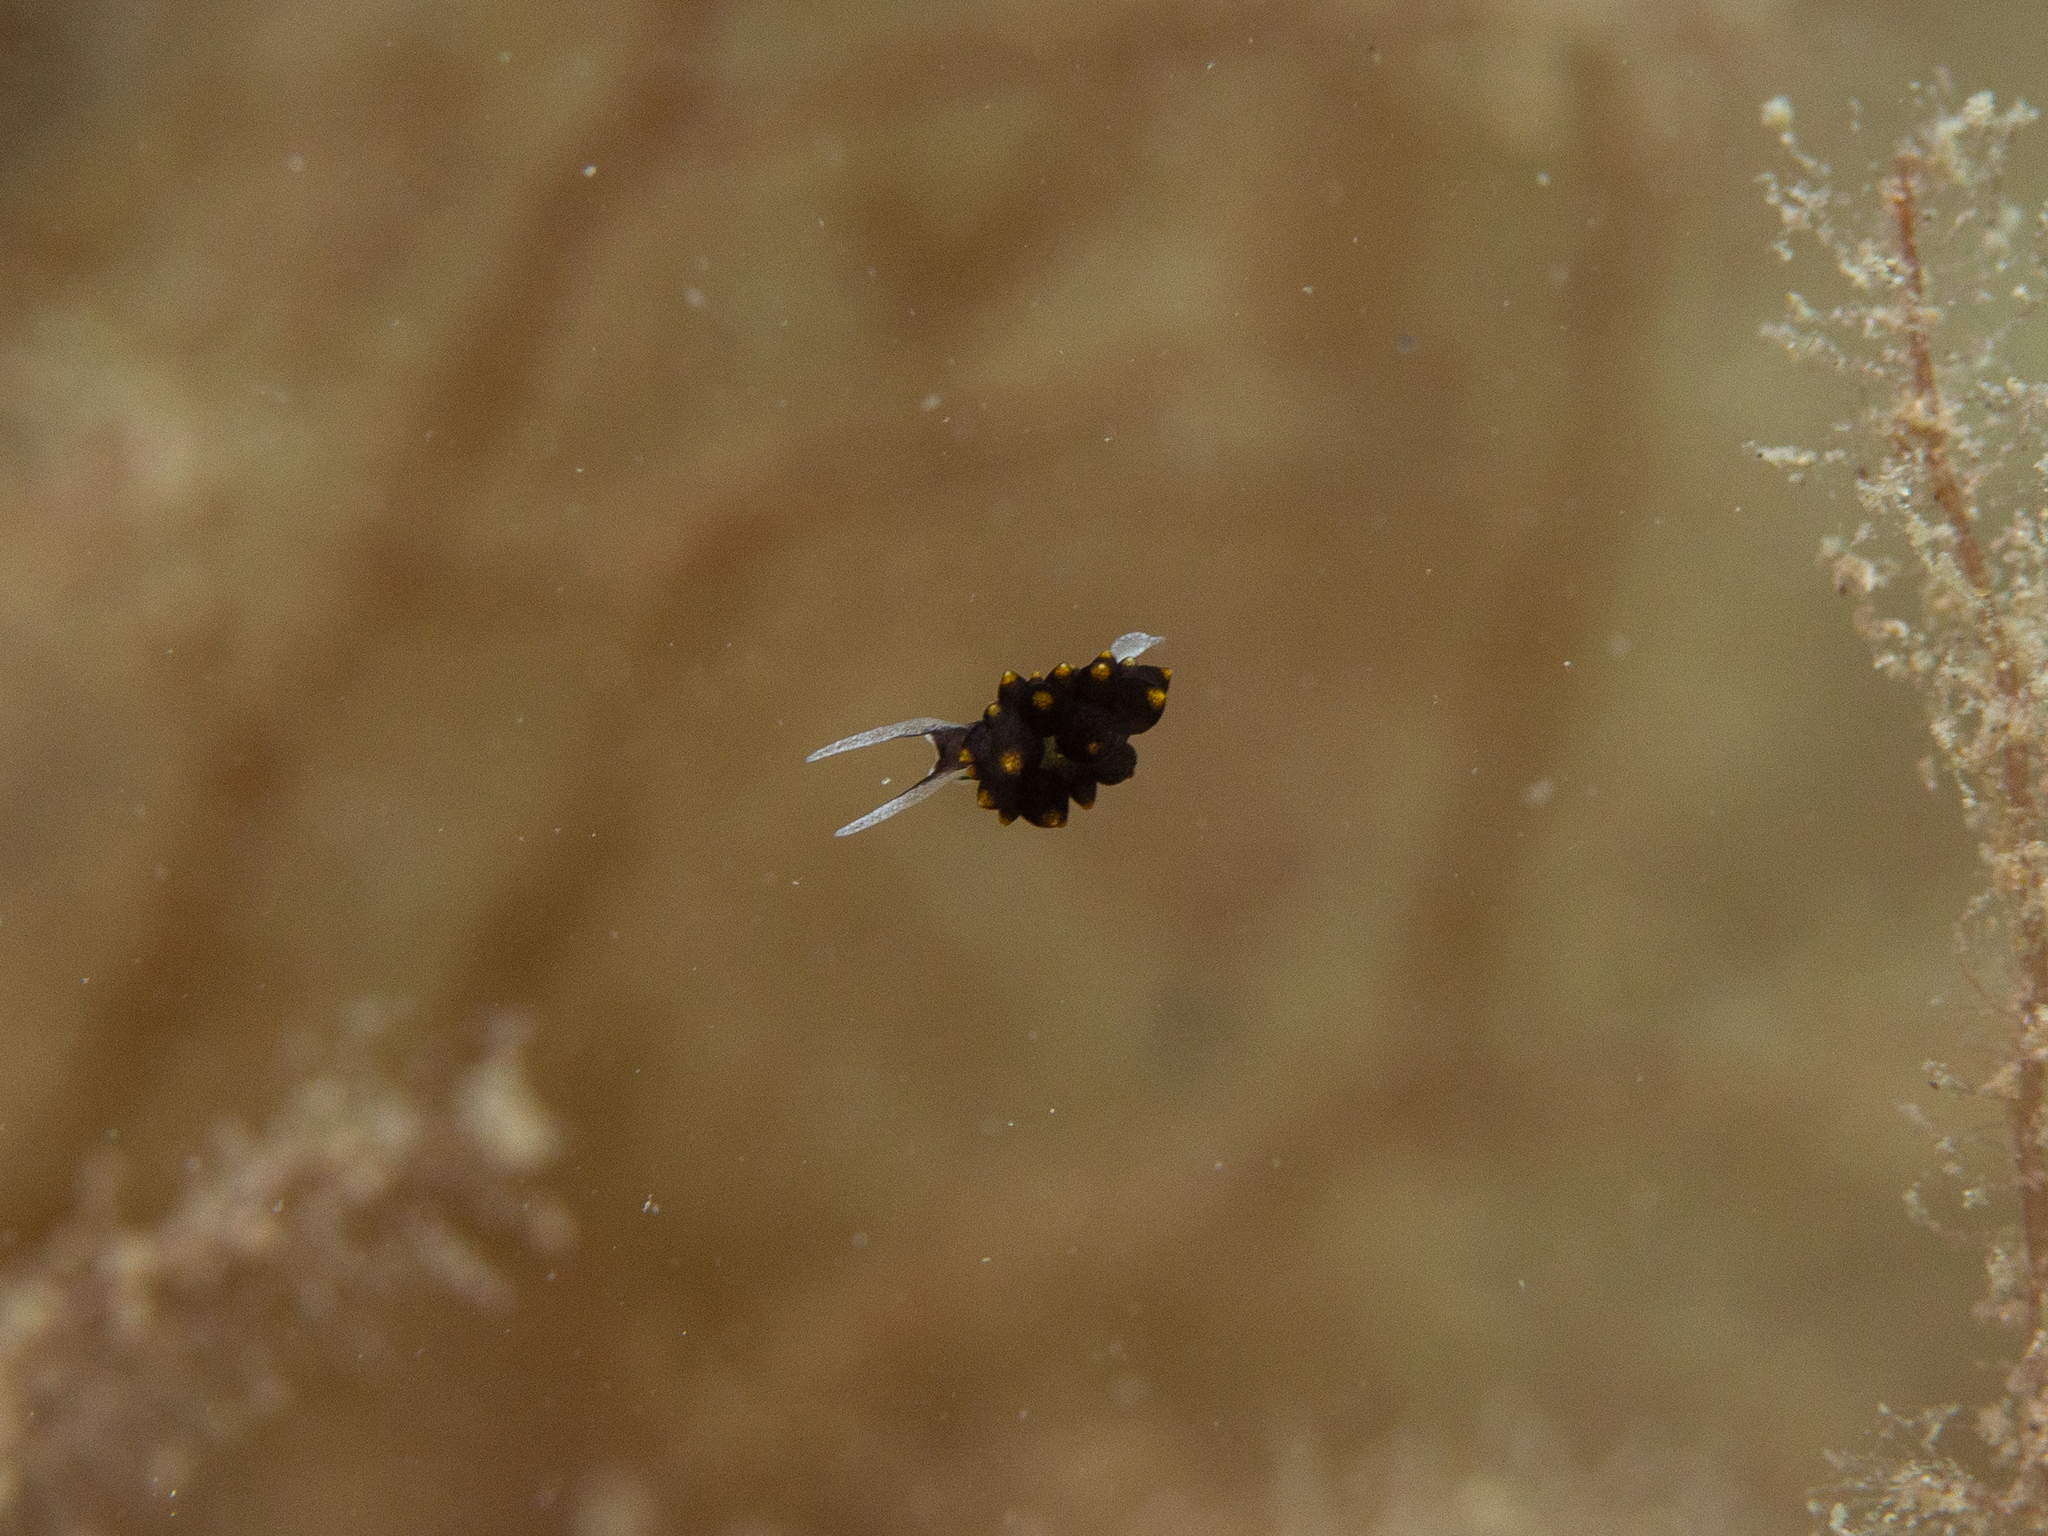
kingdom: Animalia
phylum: Mollusca
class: Gastropoda
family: Limapontiidae
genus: Ercolania
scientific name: Ercolania boodleae
